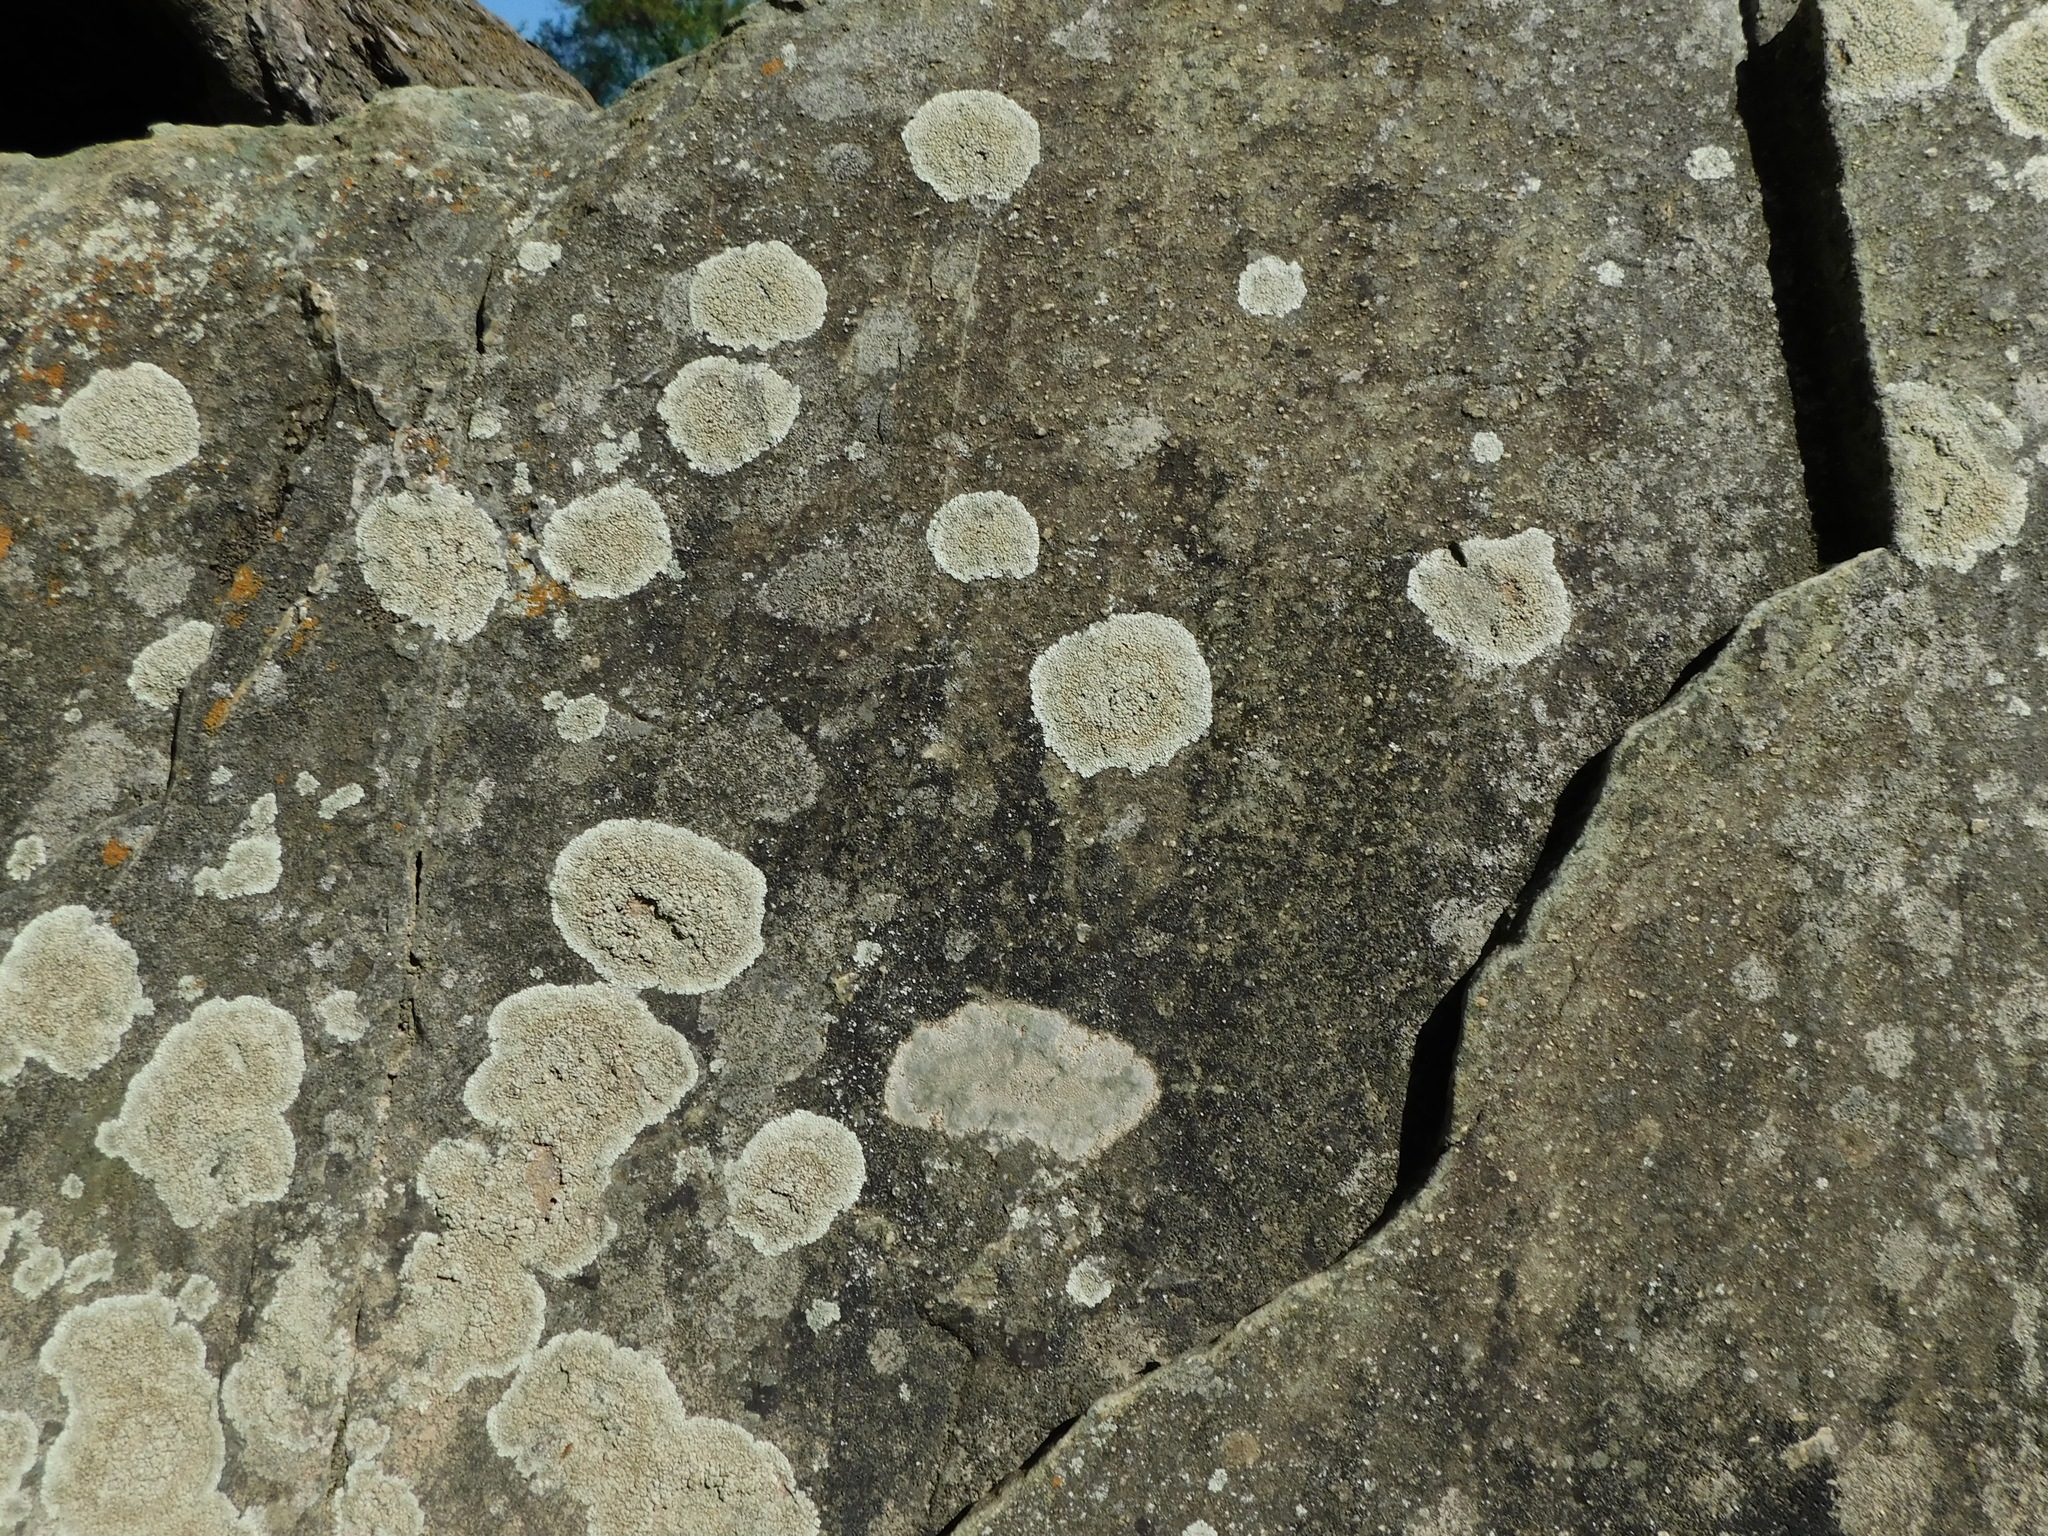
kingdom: Fungi
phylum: Ascomycota
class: Lecanoromycetes
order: Lecanorales
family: Lecanoraceae
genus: Protoparmeliopsis
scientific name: Protoparmeliopsis muralis
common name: Stonewall rim lichen
